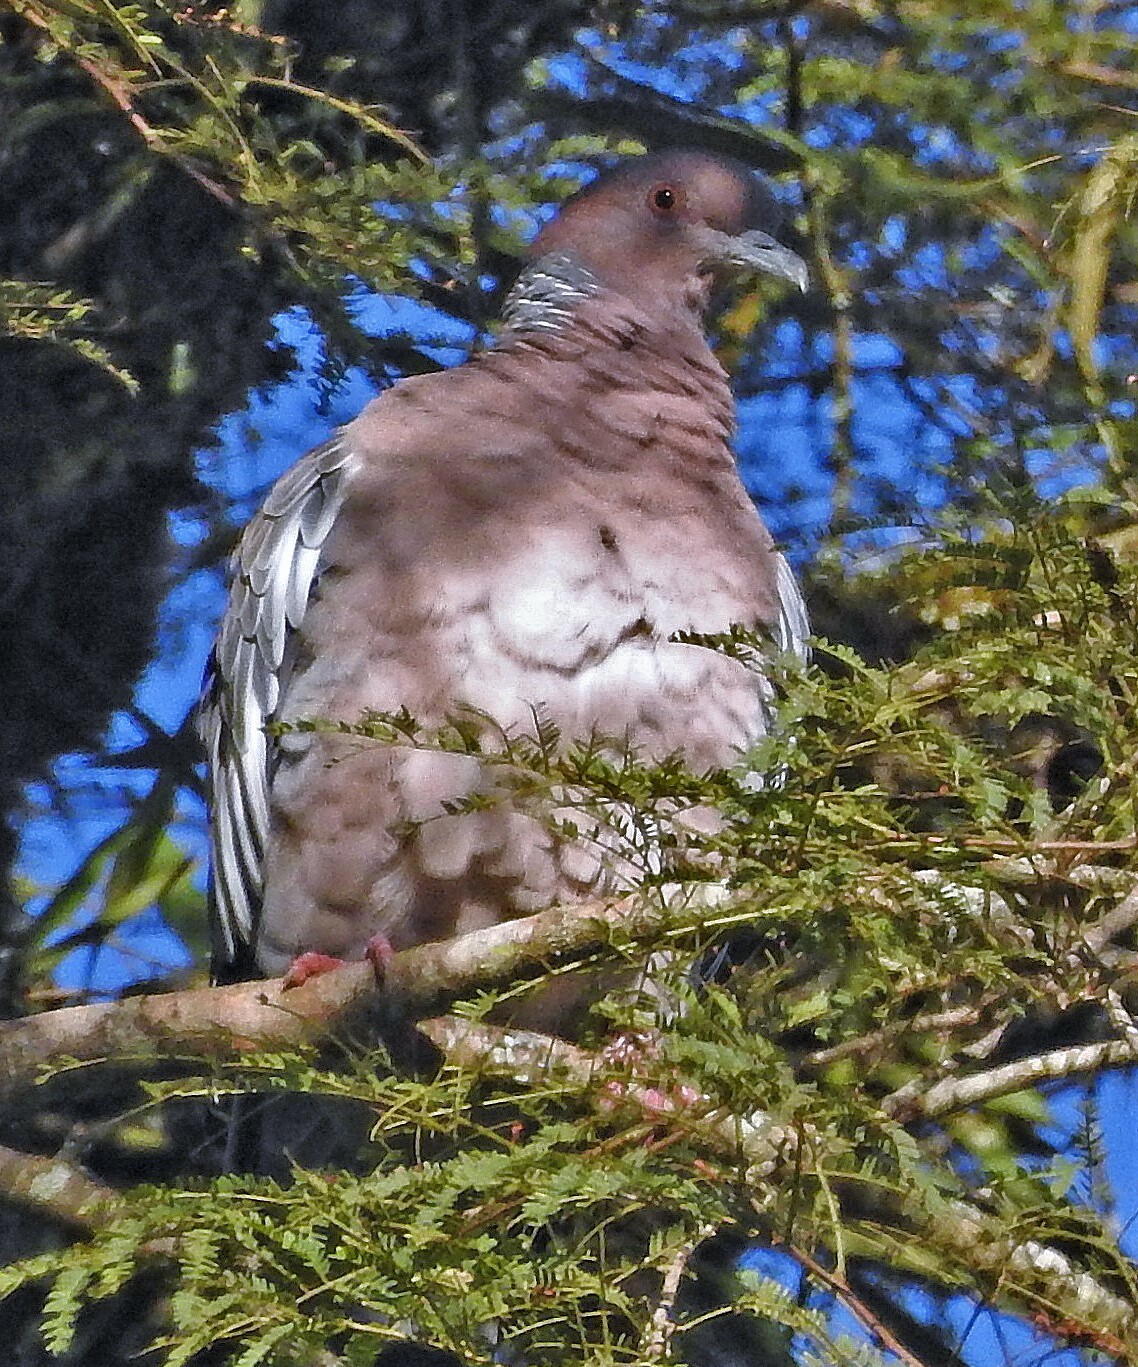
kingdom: Animalia
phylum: Chordata
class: Aves
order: Columbiformes
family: Columbidae
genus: Patagioenas
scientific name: Patagioenas picazuro
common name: Picazuro pigeon
